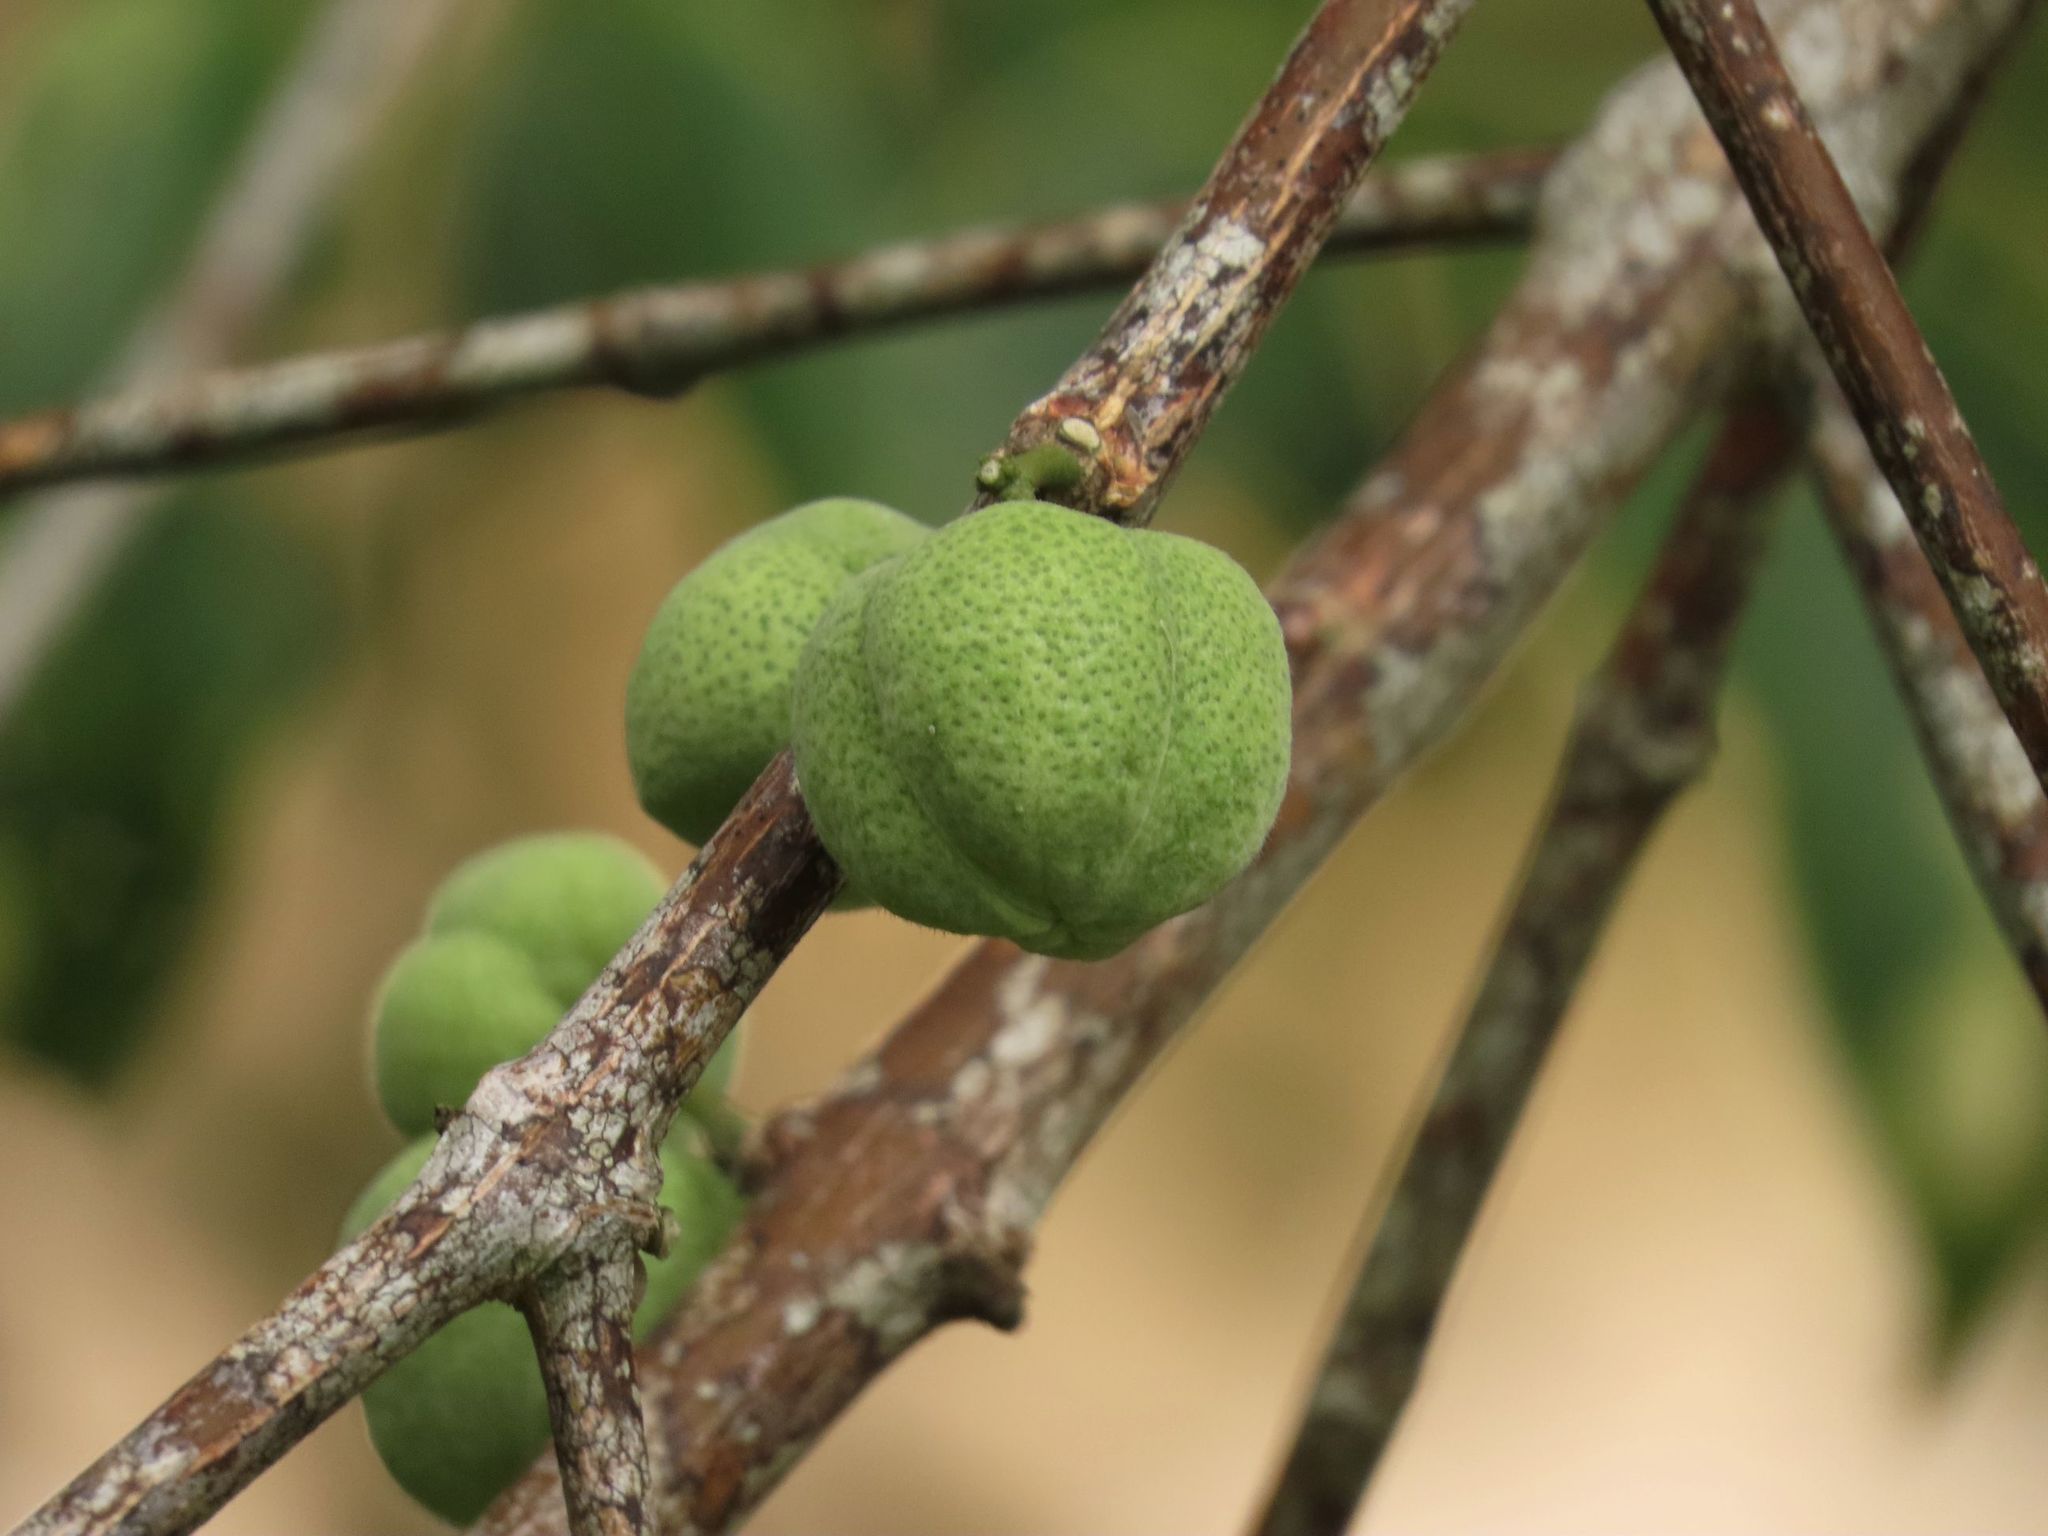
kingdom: Plantae
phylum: Tracheophyta
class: Magnoliopsida
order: Sapindales
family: Rutaceae
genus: Melicope
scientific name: Melicope rubra
